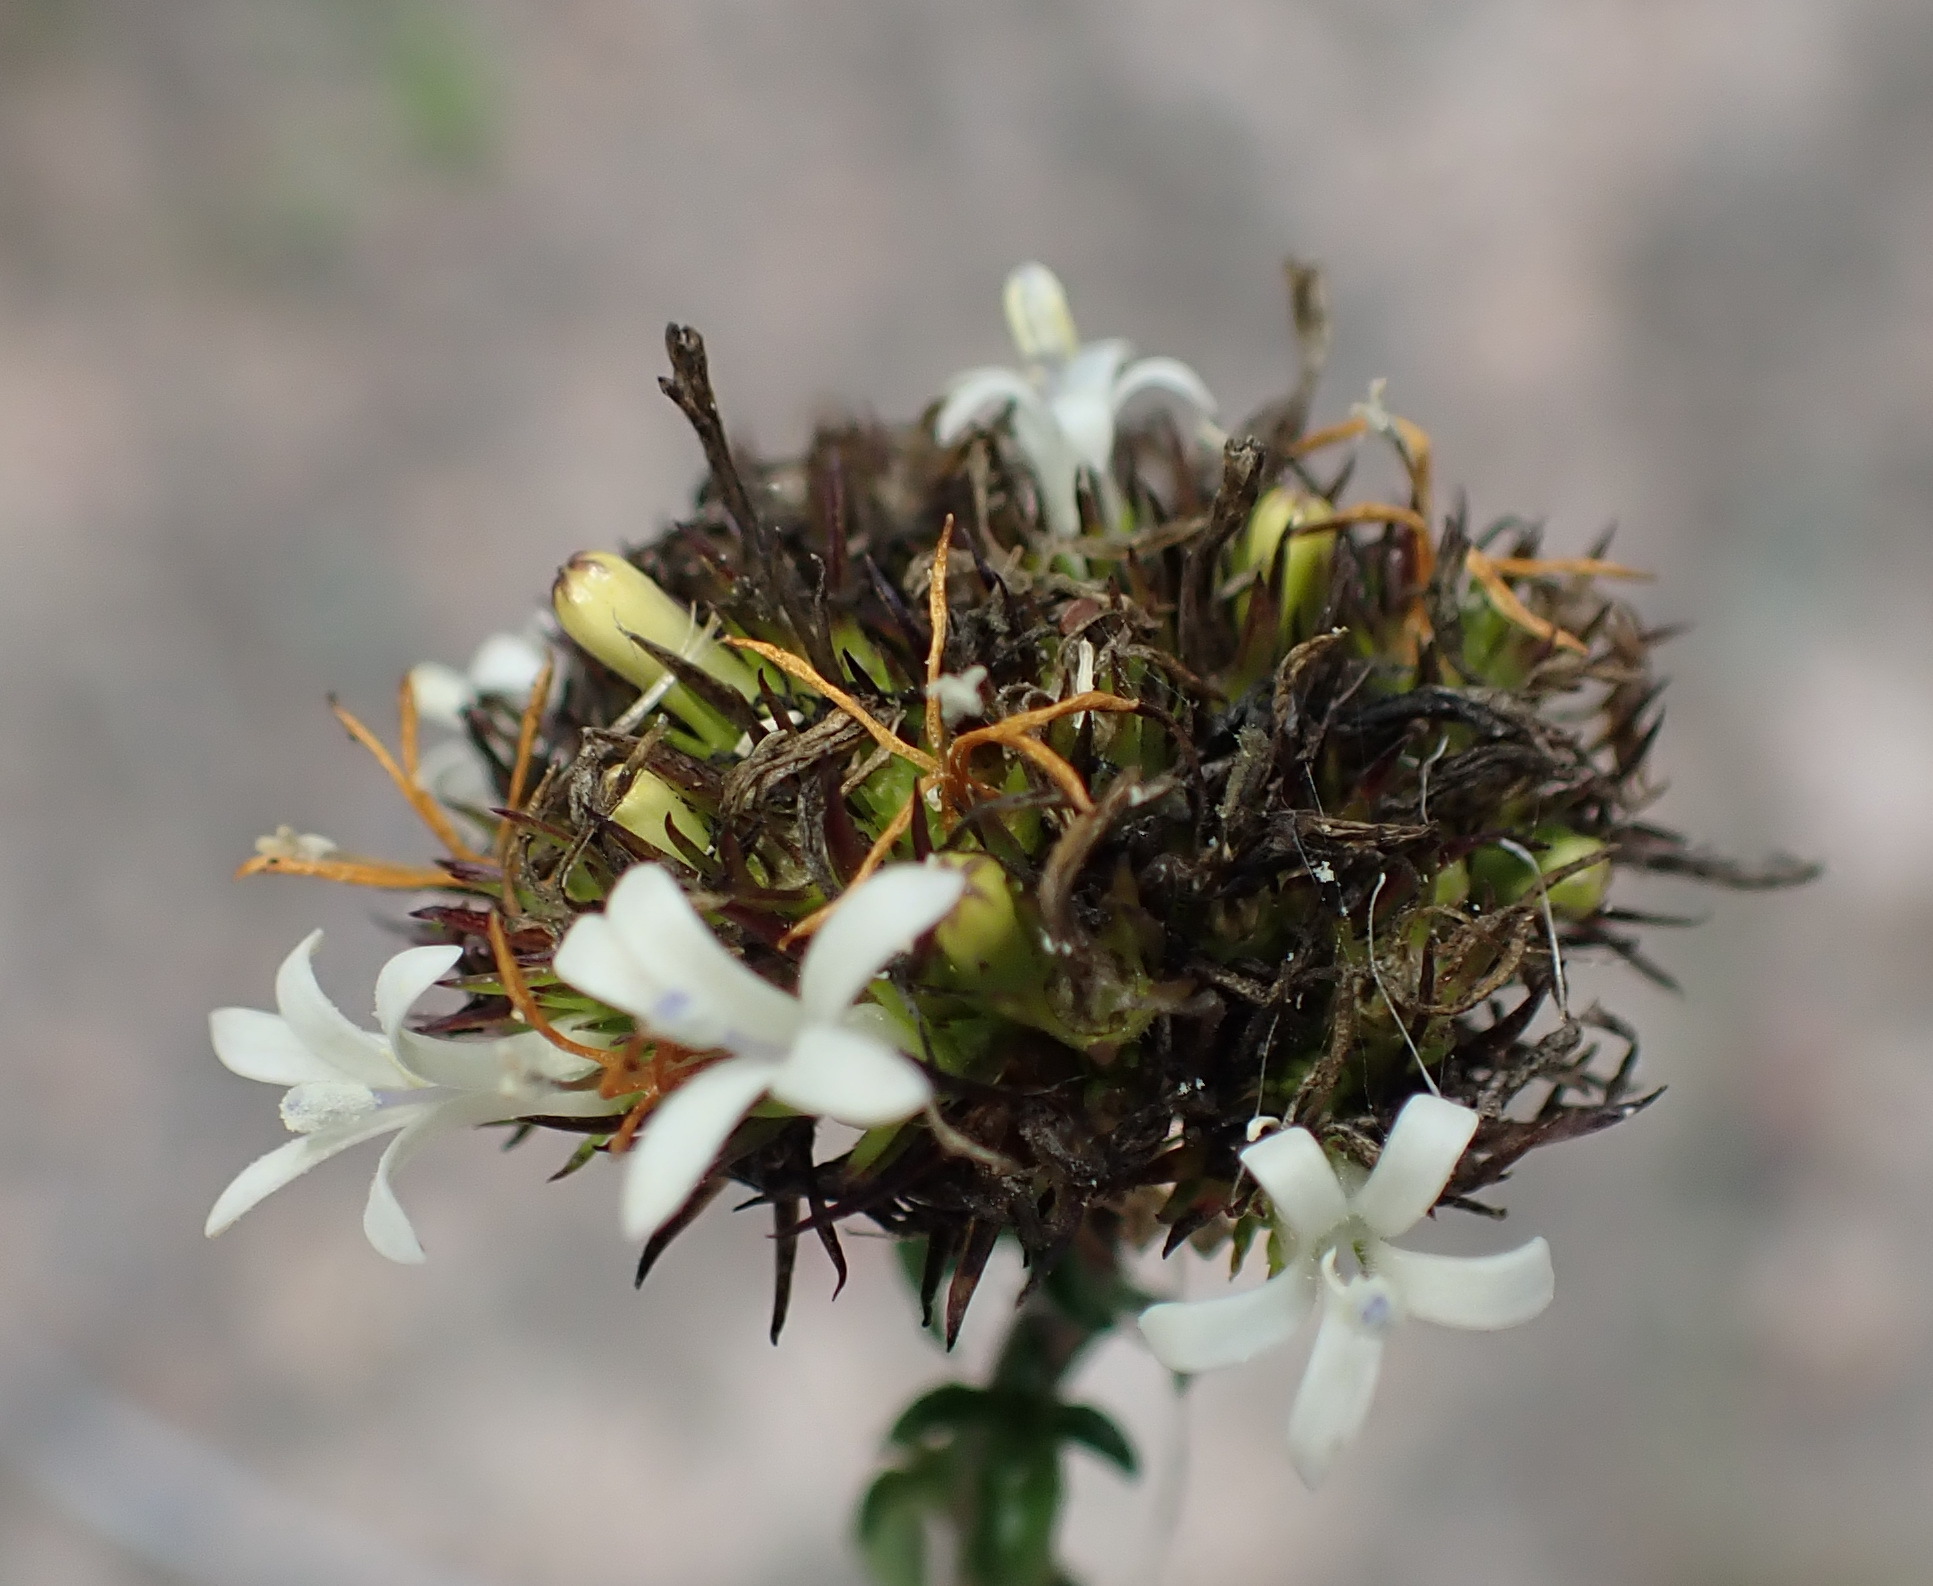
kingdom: Plantae
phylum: Tracheophyta
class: Magnoliopsida
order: Asterales
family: Campanulaceae
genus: Wahlenbergia
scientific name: Wahlenbergia desmantha
